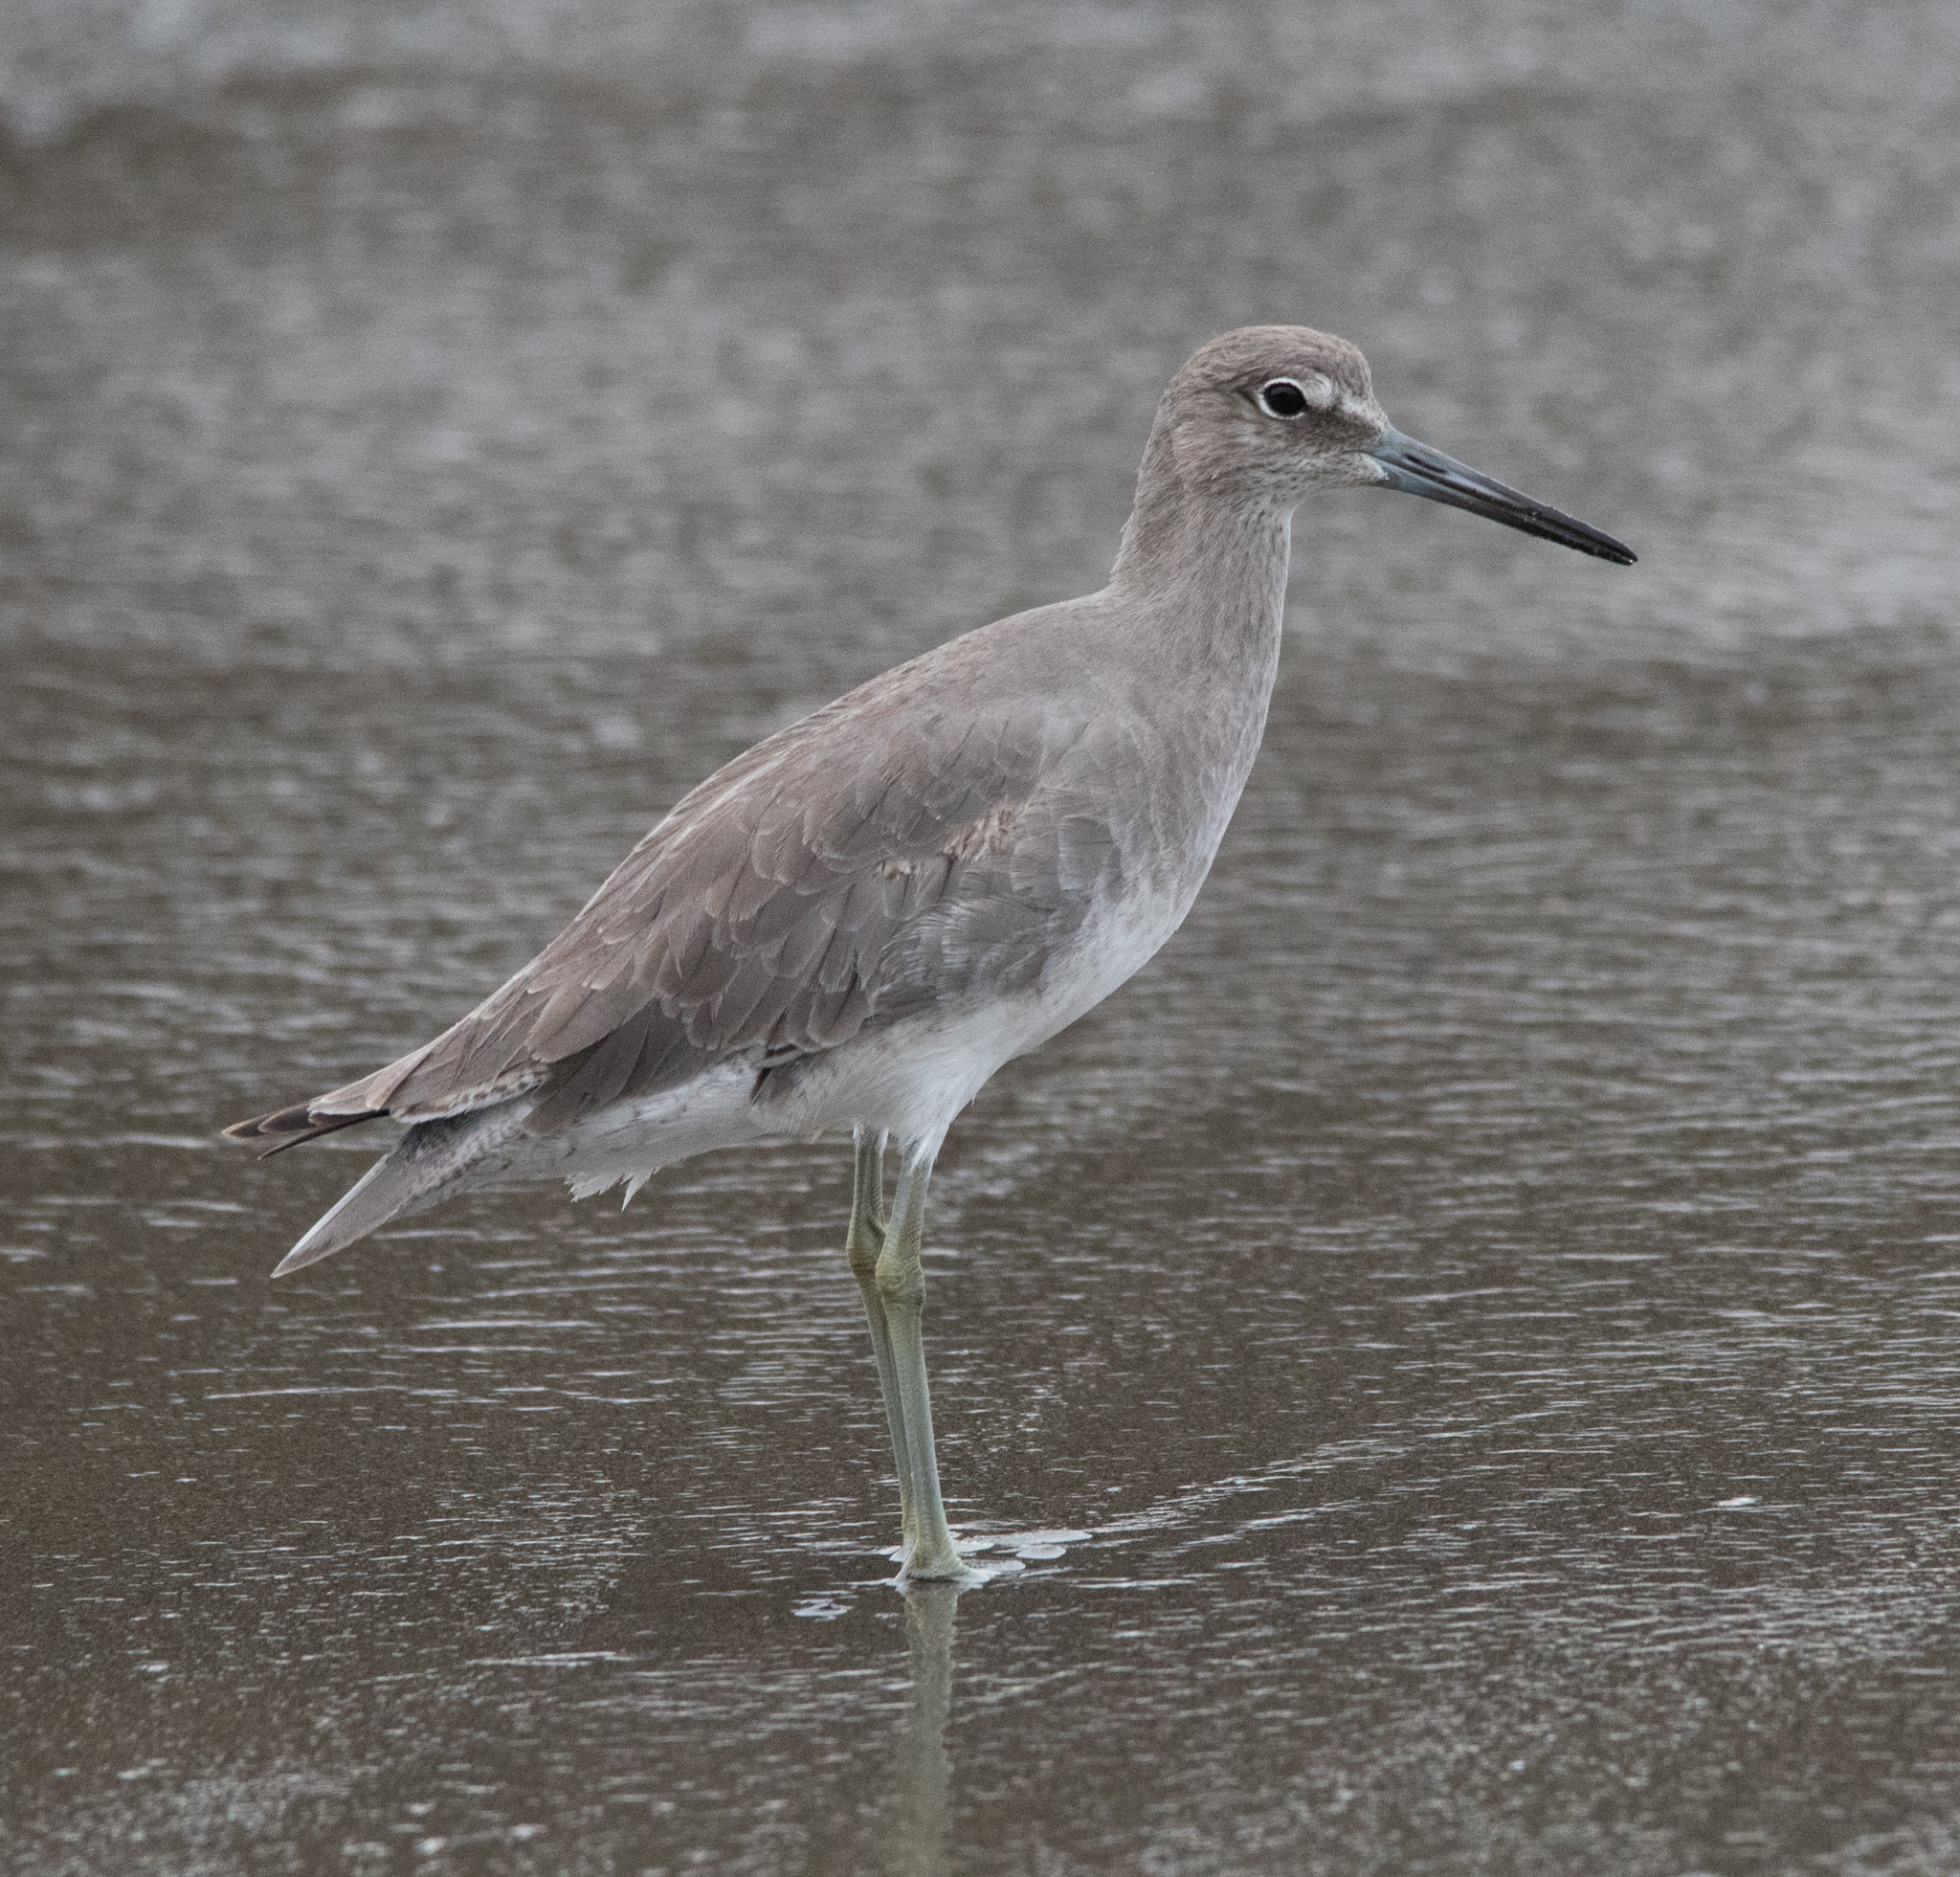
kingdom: Animalia
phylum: Chordata
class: Aves
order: Charadriiformes
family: Scolopacidae
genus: Tringa
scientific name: Tringa semipalmata
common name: Willet
